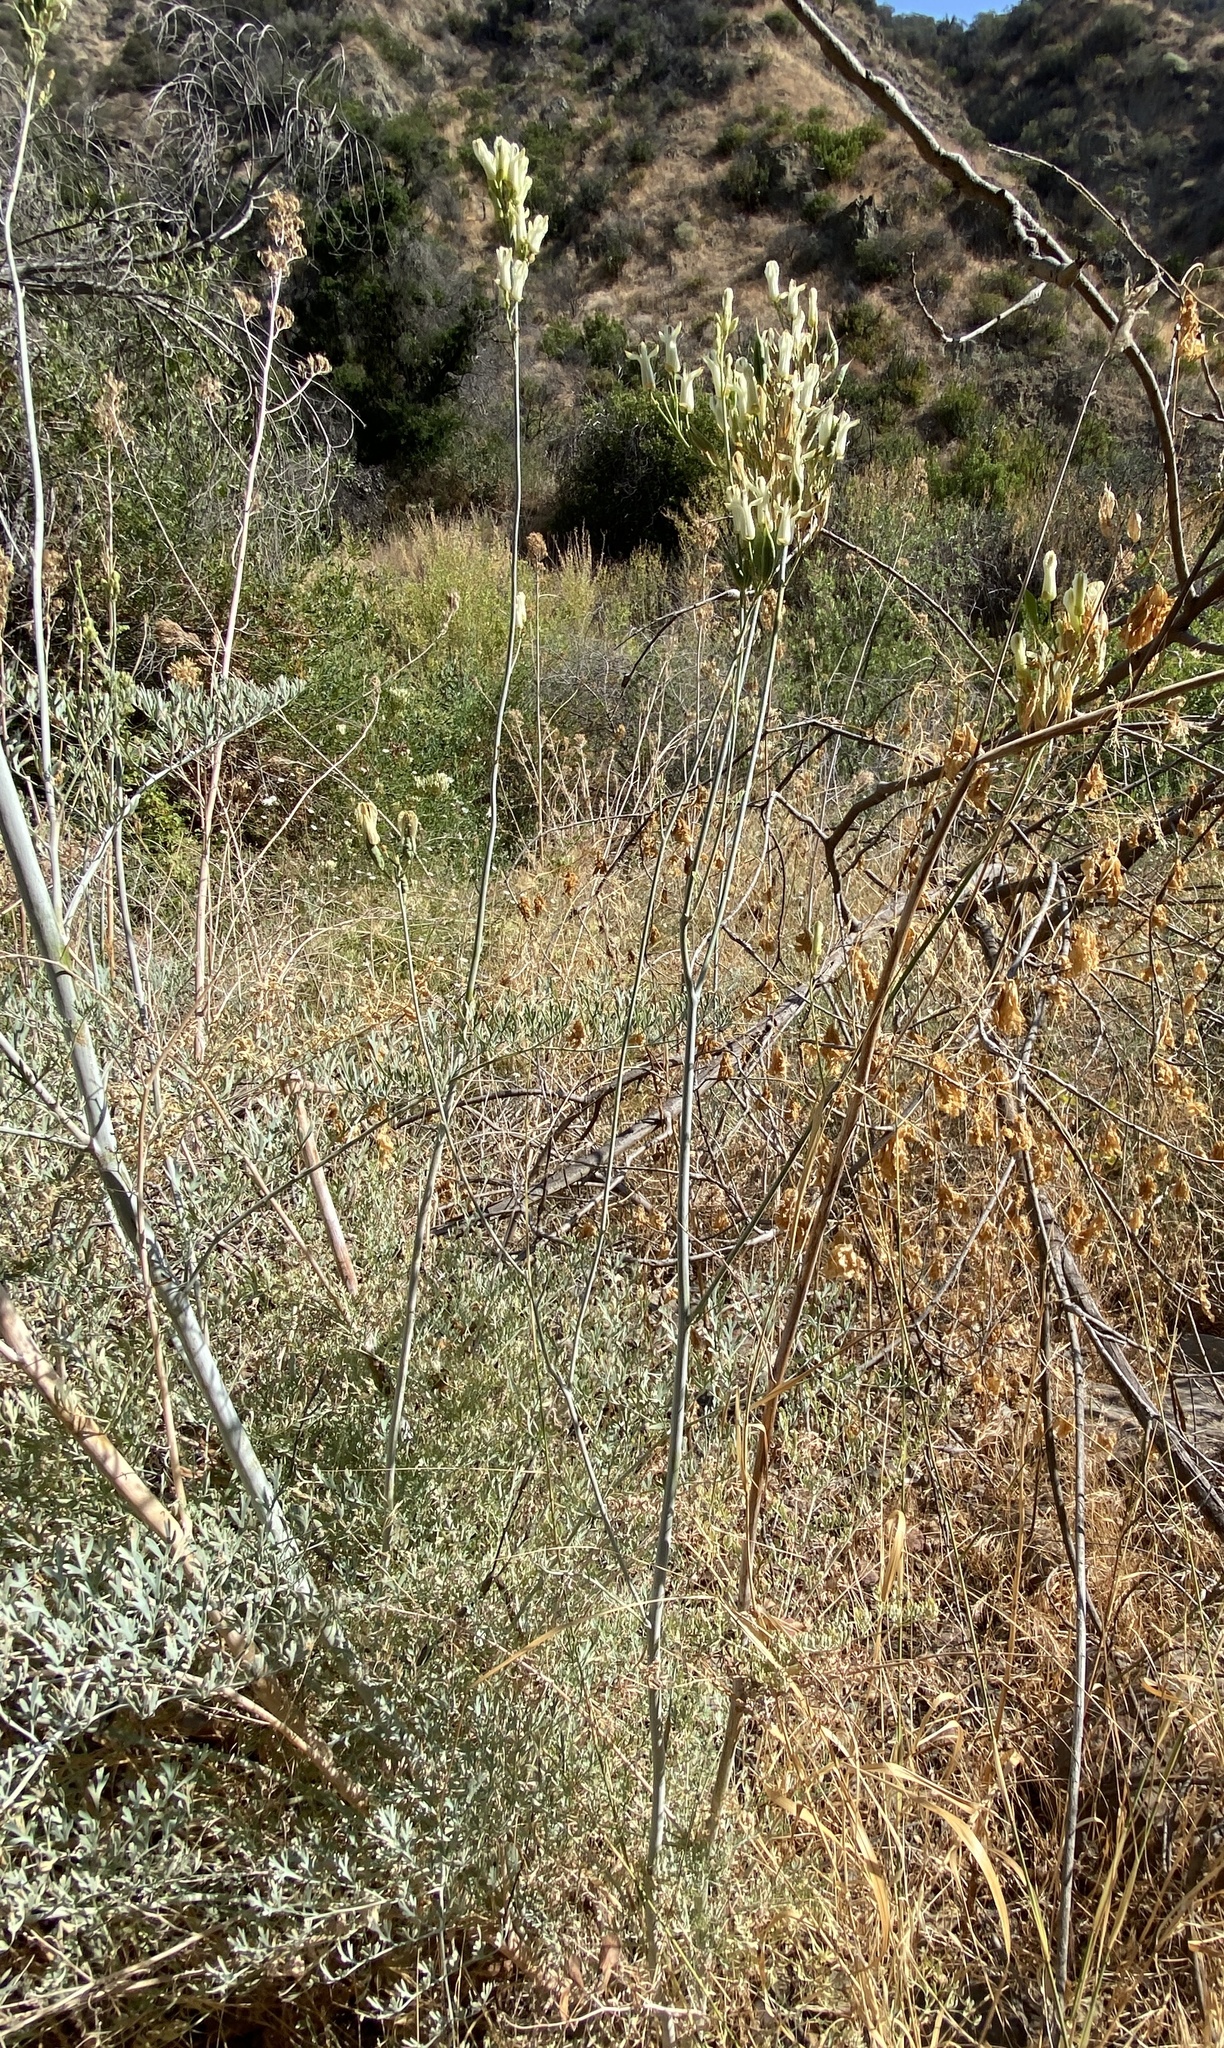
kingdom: Plantae
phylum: Tracheophyta
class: Magnoliopsida
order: Ranunculales
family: Papaveraceae
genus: Ehrendorferia
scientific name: Ehrendorferia ochroleuca
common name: White eardrops
